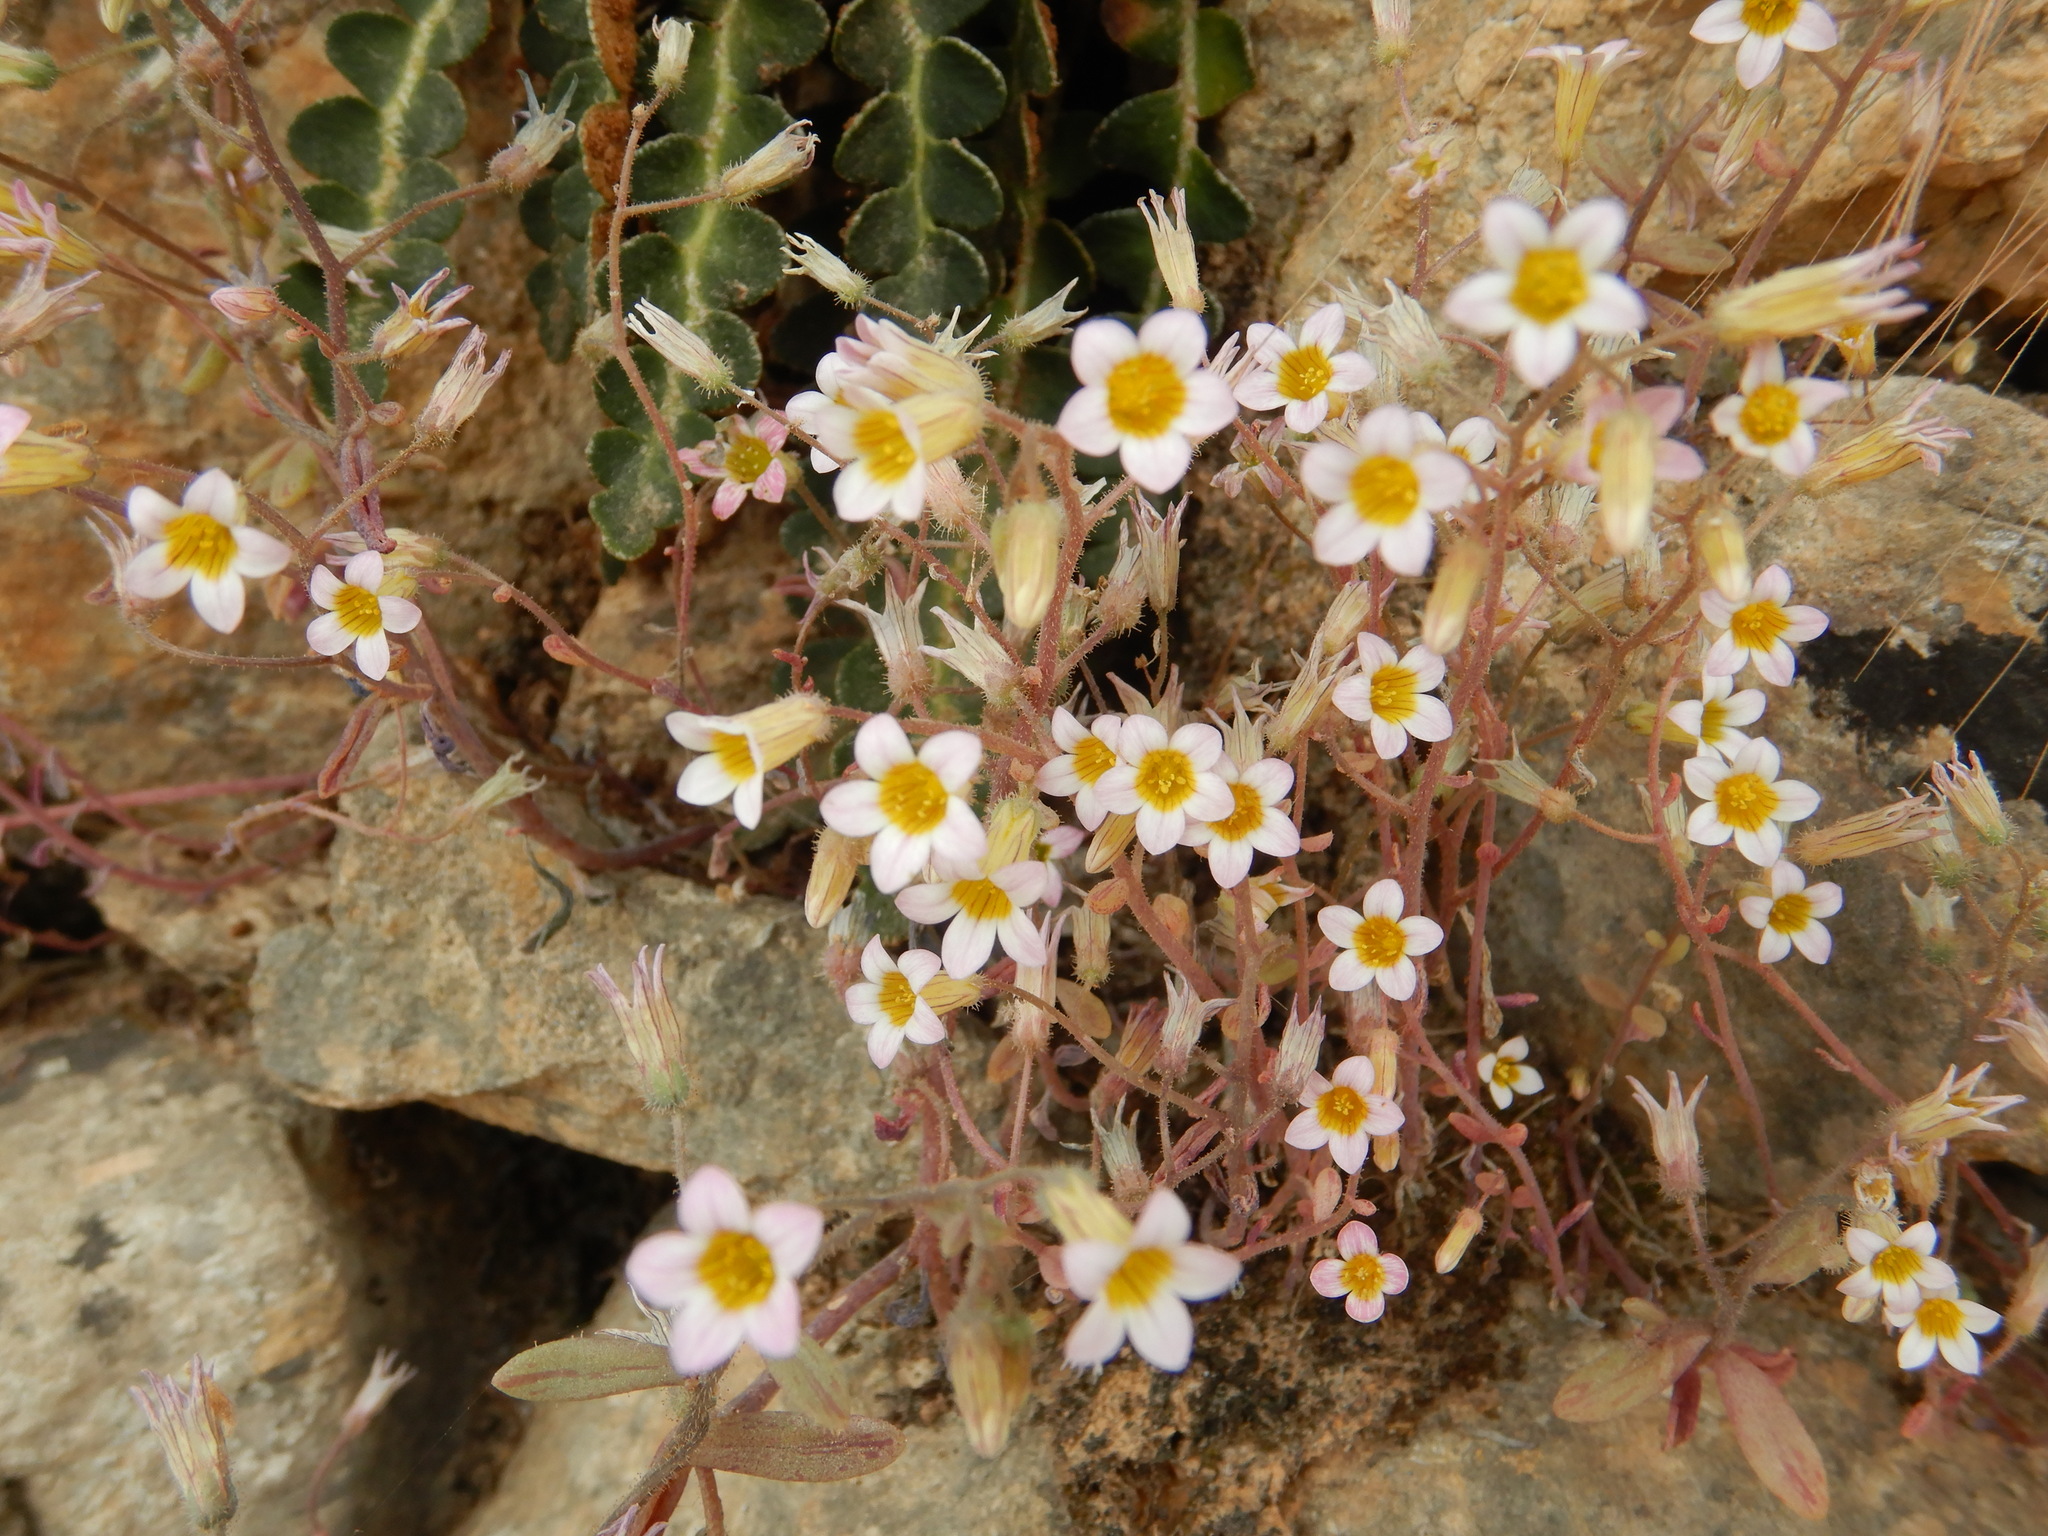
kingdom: Plantae
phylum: Tracheophyta
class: Magnoliopsida
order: Saxifragales
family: Crassulaceae
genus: Sedum
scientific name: Sedum mucizonia
